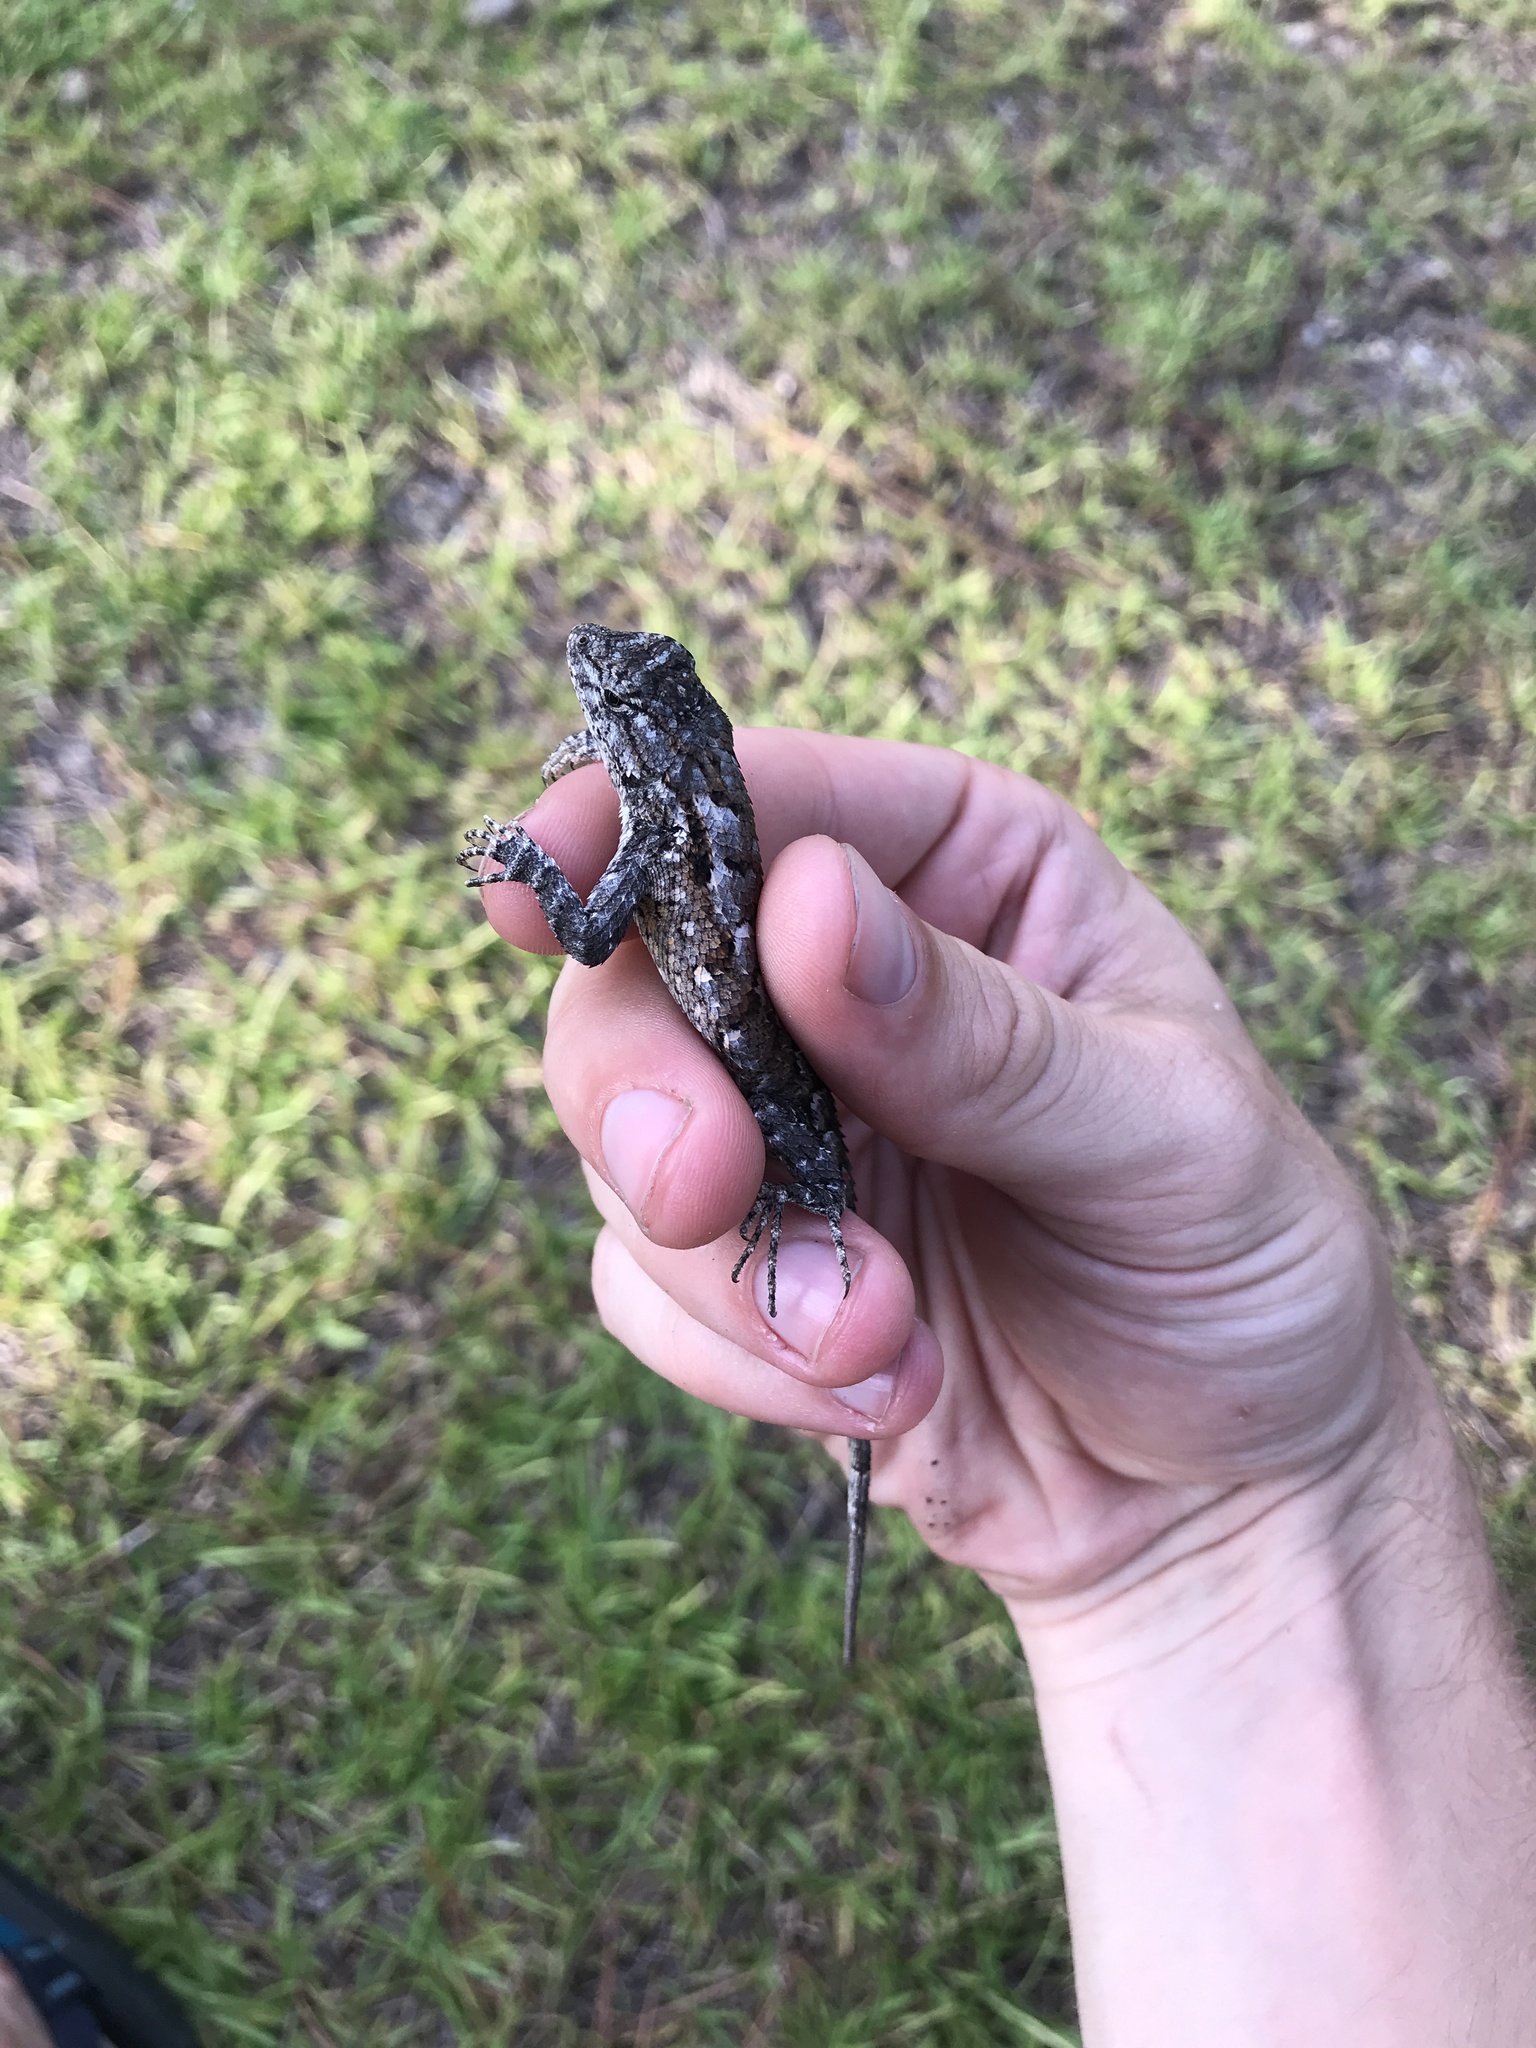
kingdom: Animalia
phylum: Chordata
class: Squamata
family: Phrynosomatidae
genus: Sceloporus
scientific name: Sceloporus undulatus
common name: Eastern fence lizard
